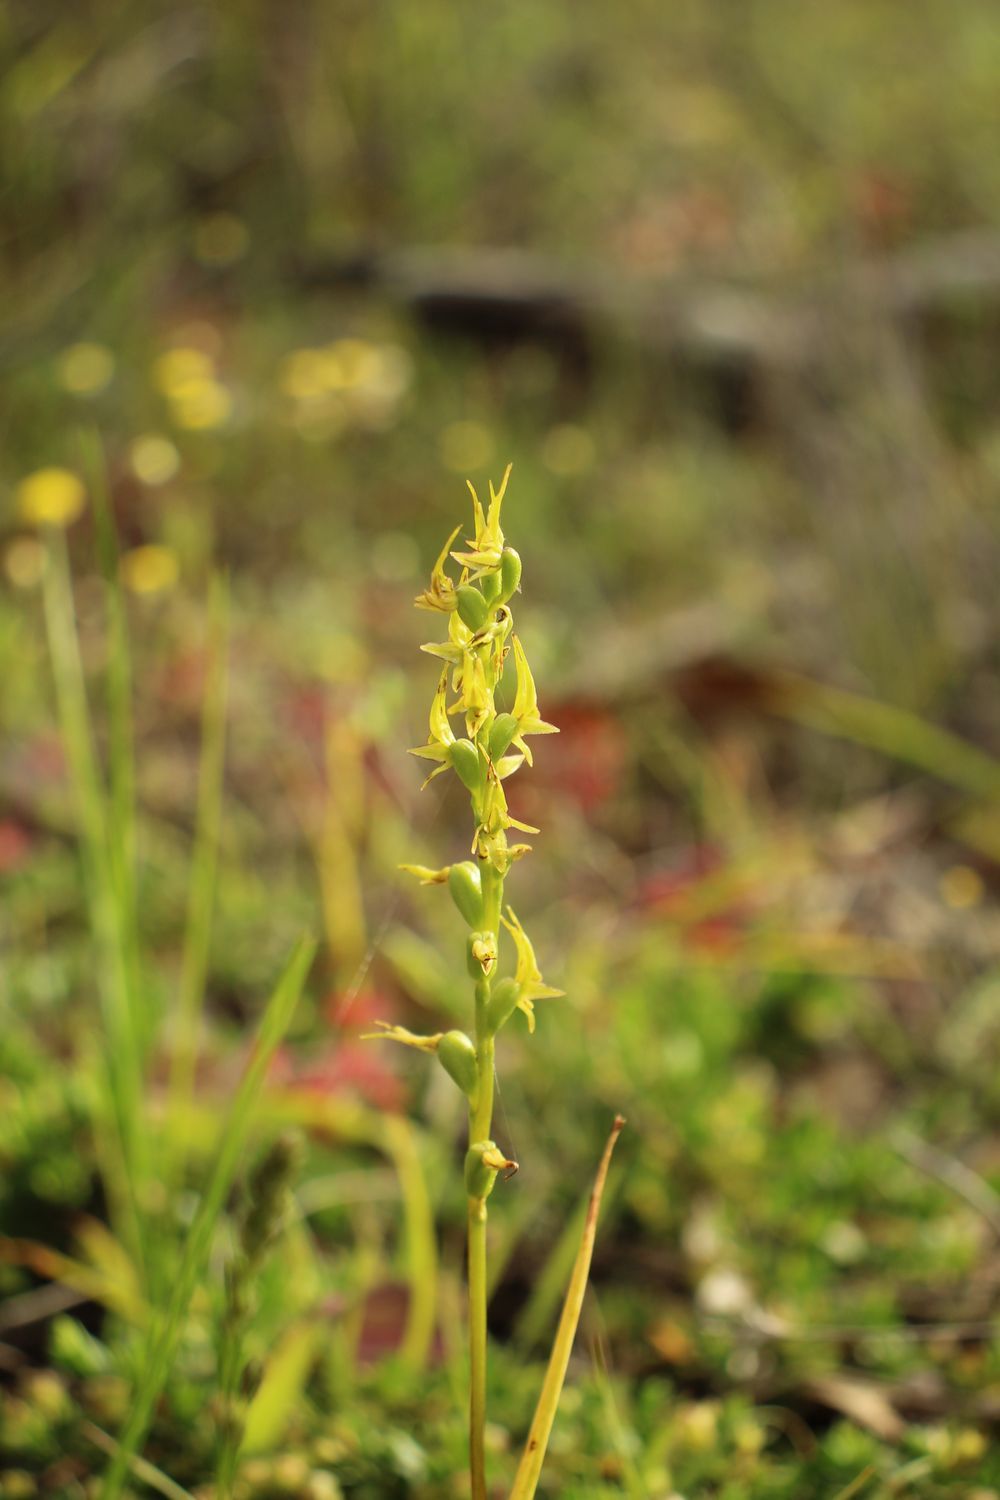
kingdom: Plantae
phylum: Tracheophyta
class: Liliopsida
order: Asparagales
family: Orchidaceae
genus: Prasophyllum
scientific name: Prasophyllum gracile
